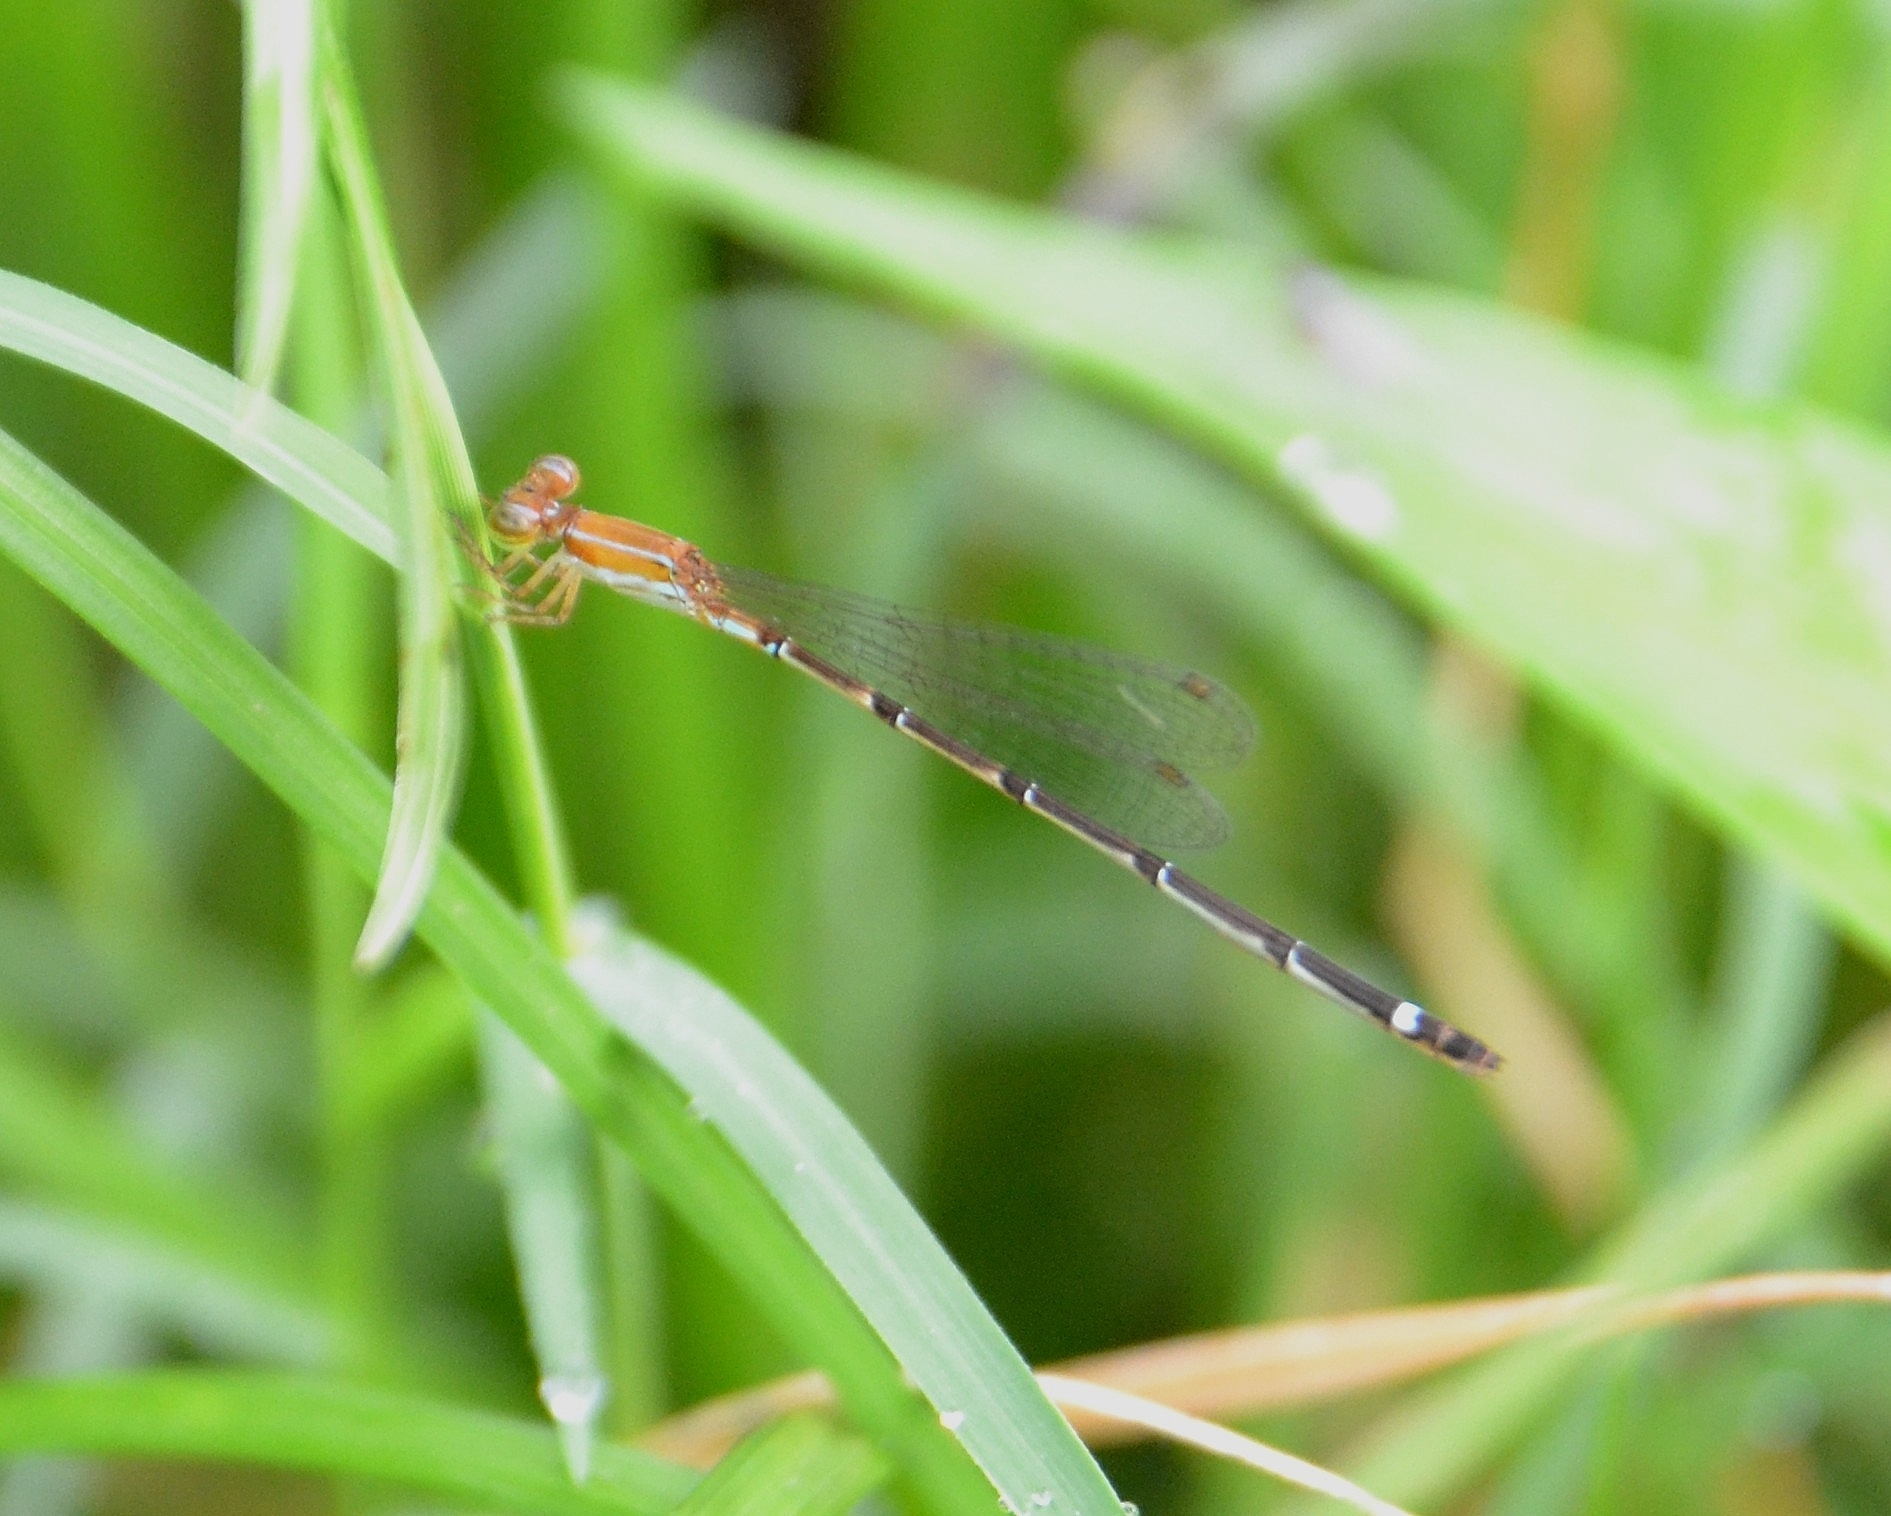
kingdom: Animalia
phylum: Arthropoda
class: Insecta
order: Odonata
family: Coenagrionidae
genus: Mortonagrion
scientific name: Mortonagrion varralli
